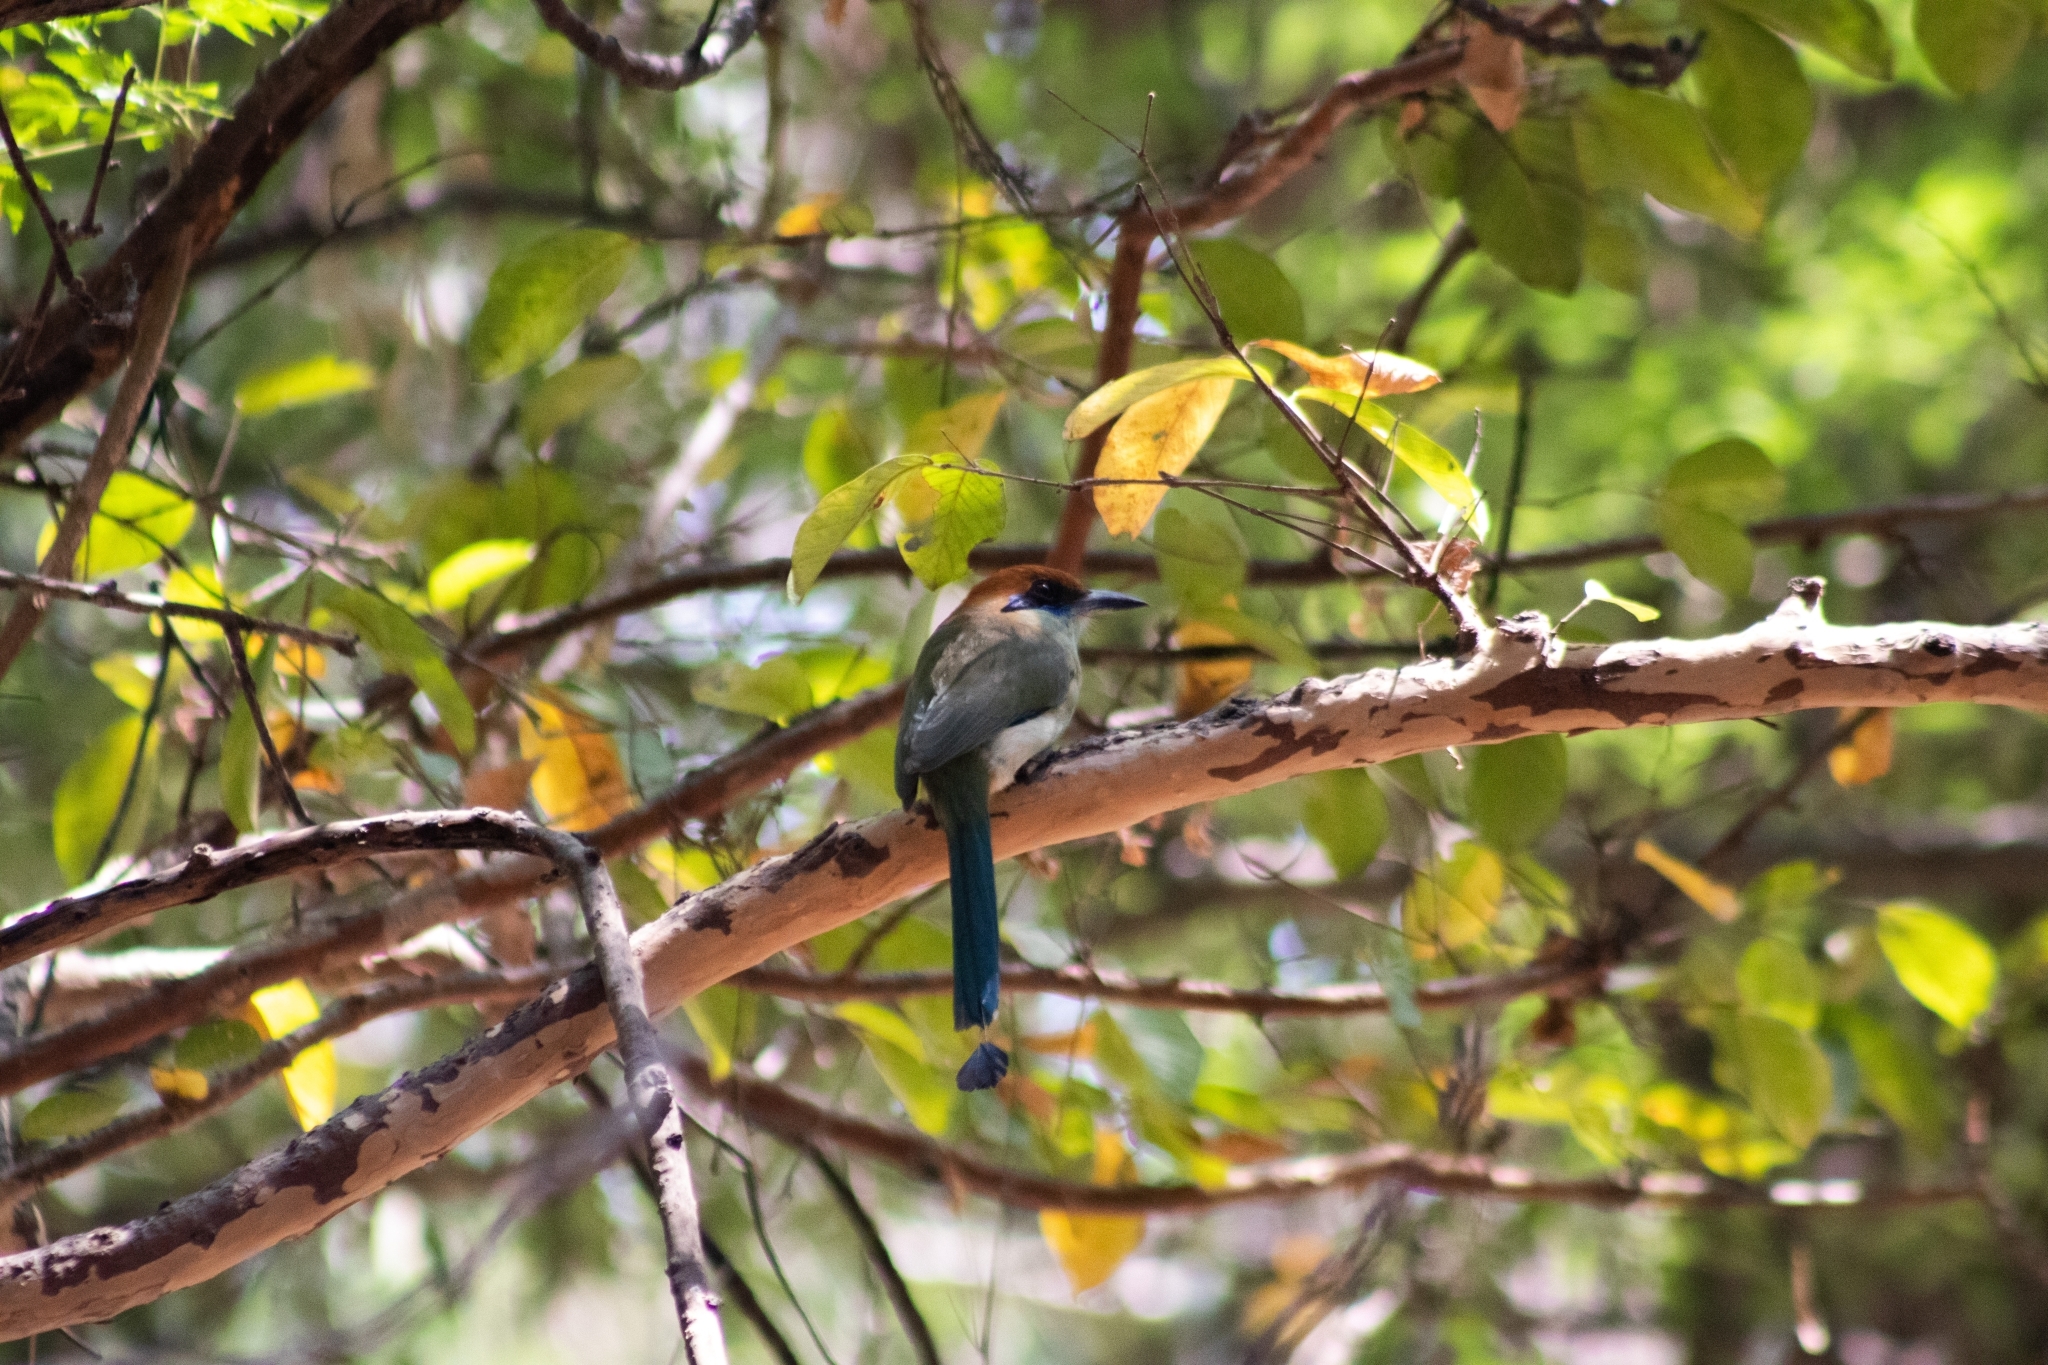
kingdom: Animalia
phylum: Chordata
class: Aves
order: Coraciiformes
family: Momotidae
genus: Momotus
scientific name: Momotus mexicanus
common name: Russet-crowned motmot
